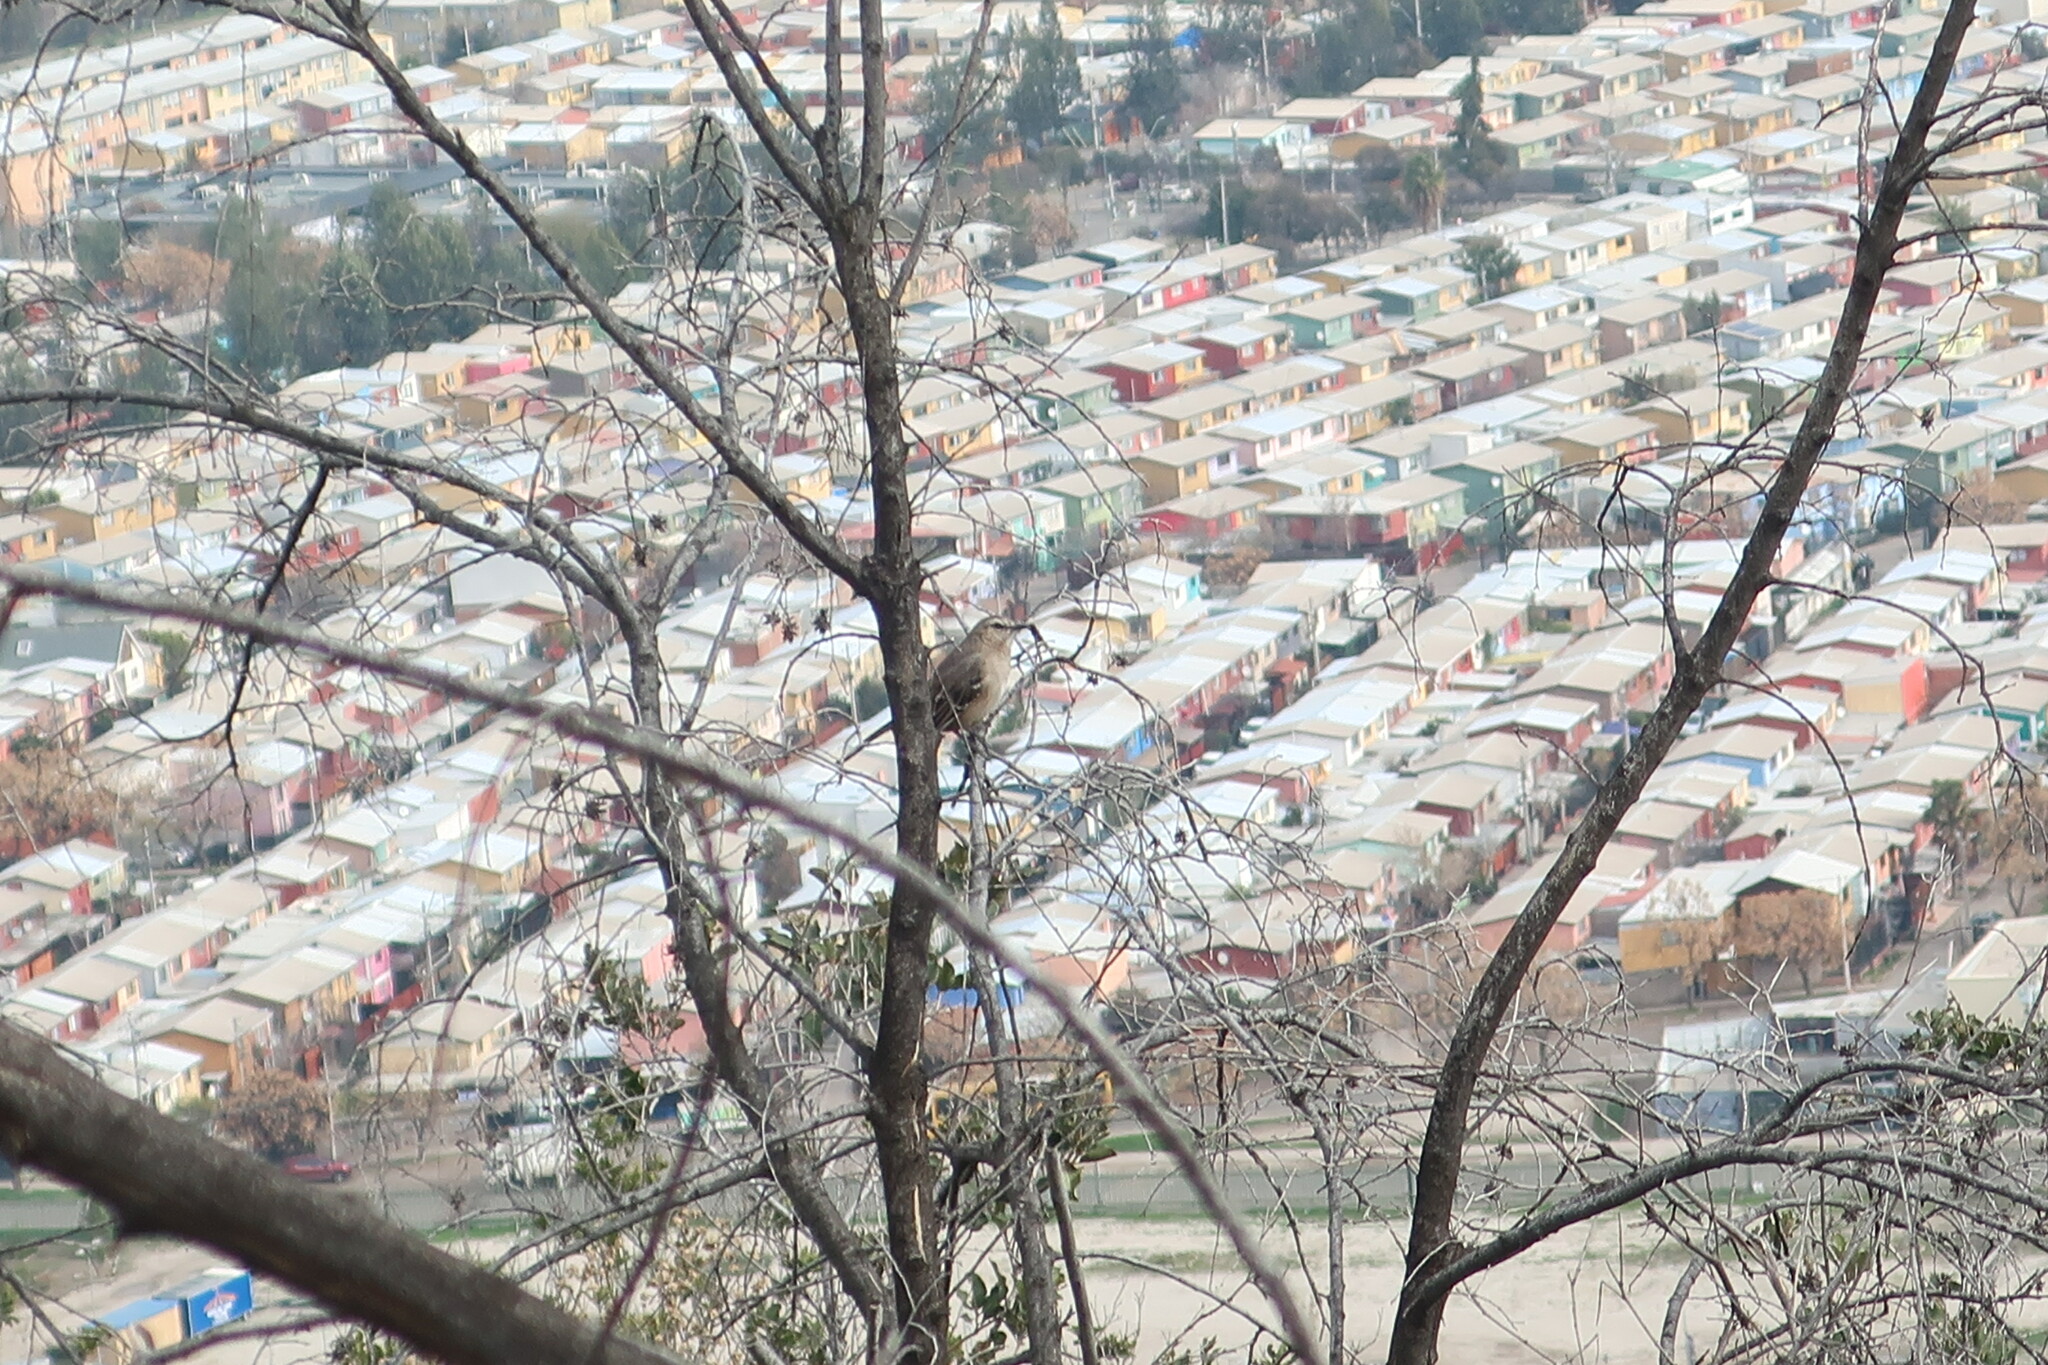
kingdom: Animalia
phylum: Chordata
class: Aves
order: Passeriformes
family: Mimidae
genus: Mimus
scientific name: Mimus thenca
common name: Chilean mockingbird
